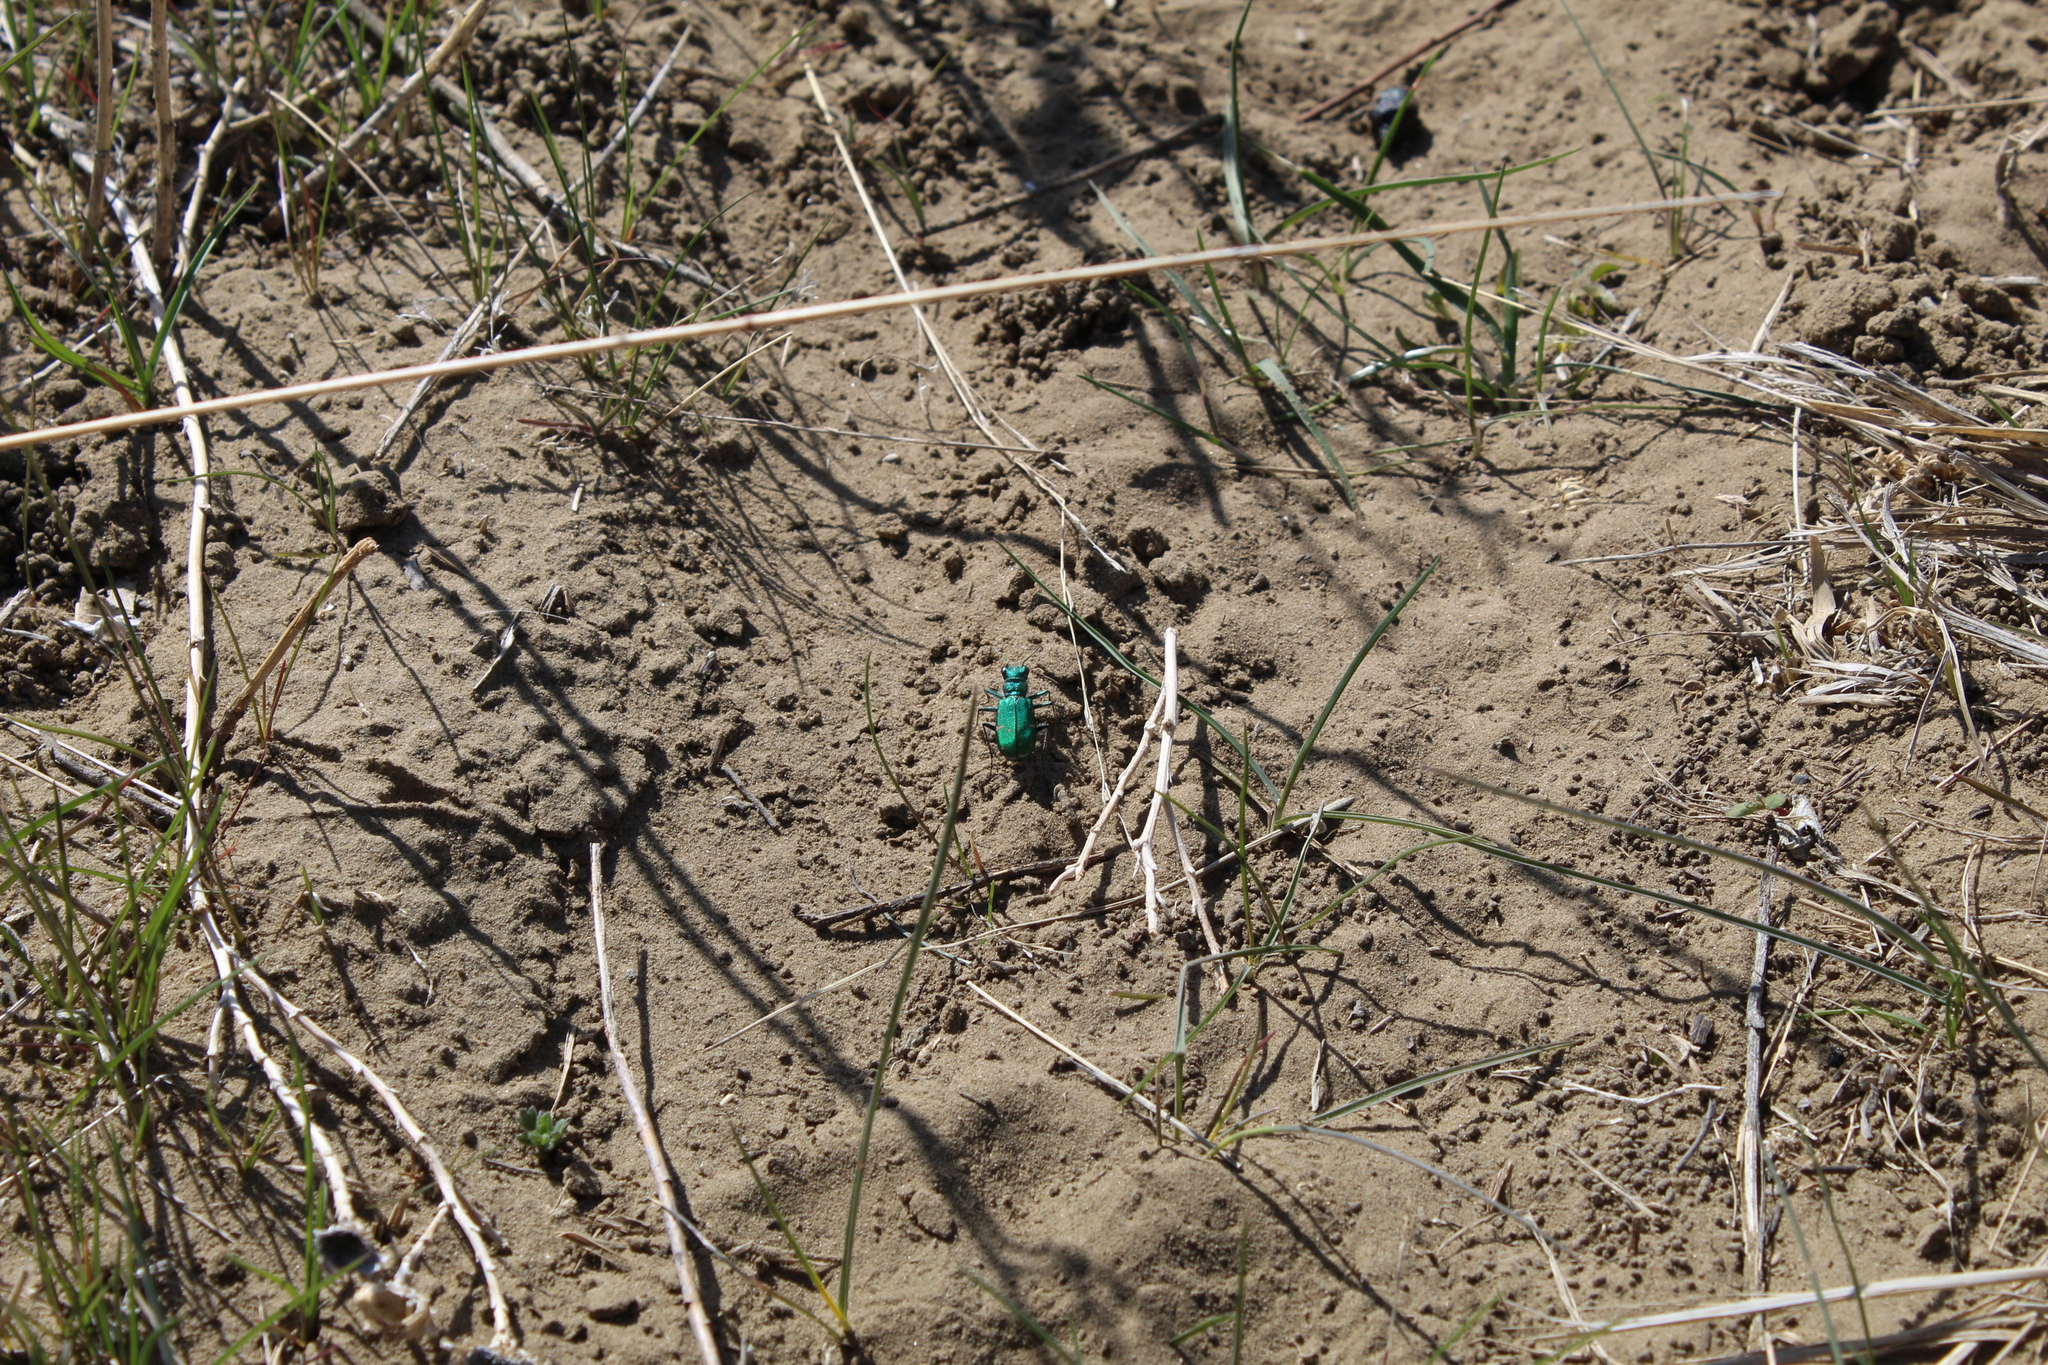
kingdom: Animalia
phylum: Arthropoda
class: Insecta
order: Coleoptera
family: Carabidae
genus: Cicindela
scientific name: Cicindela denverensis
